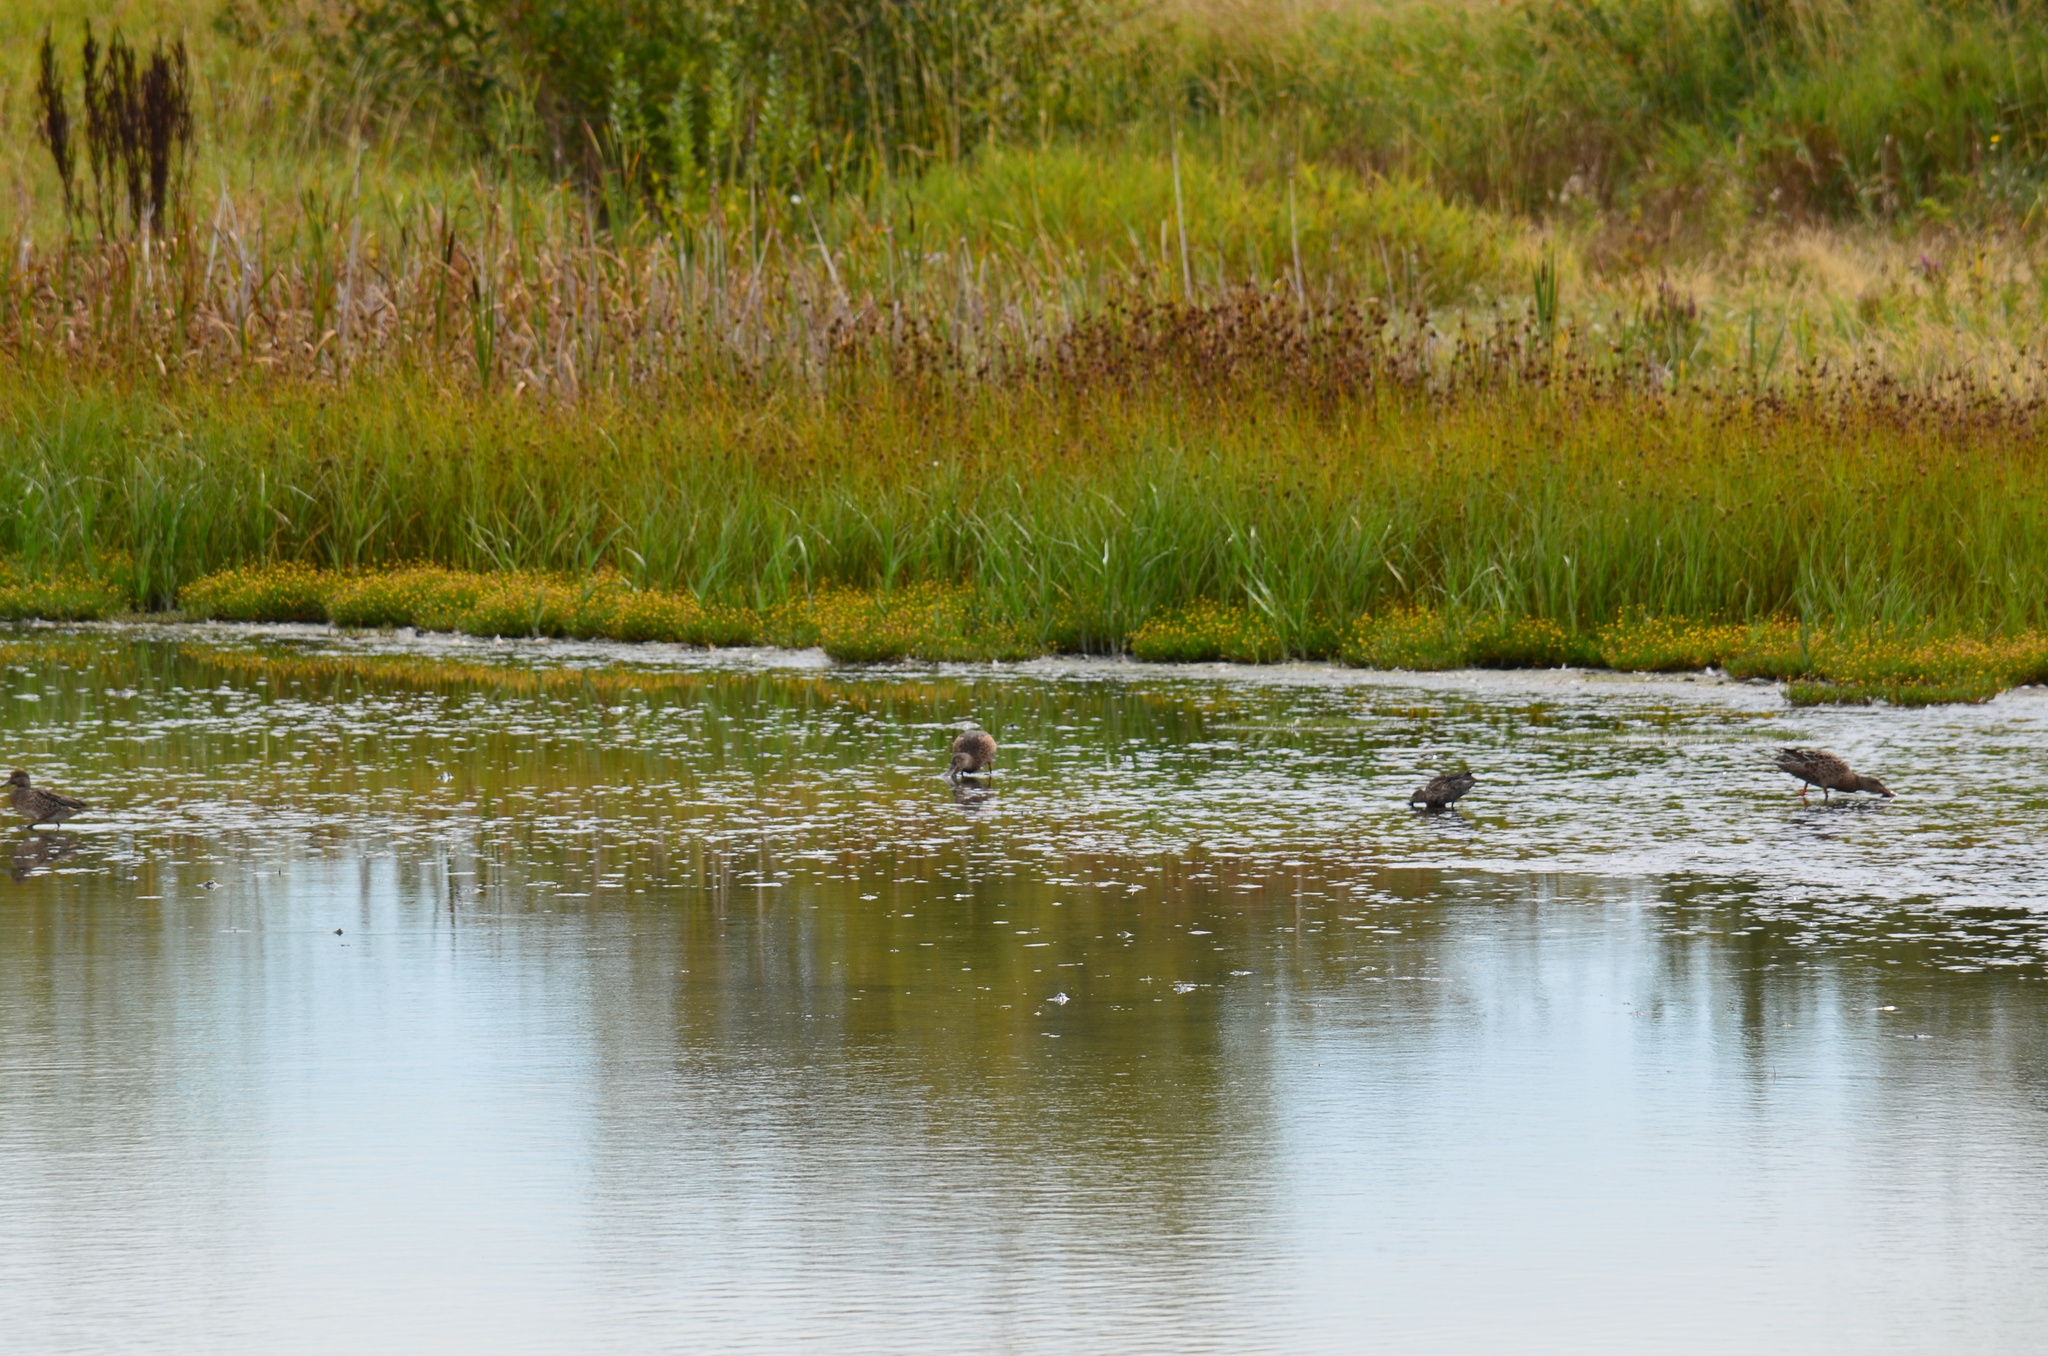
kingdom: Animalia
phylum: Chordata
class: Aves
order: Anseriformes
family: Anatidae
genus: Spatula
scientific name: Spatula clypeata
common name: Northern shoveler
